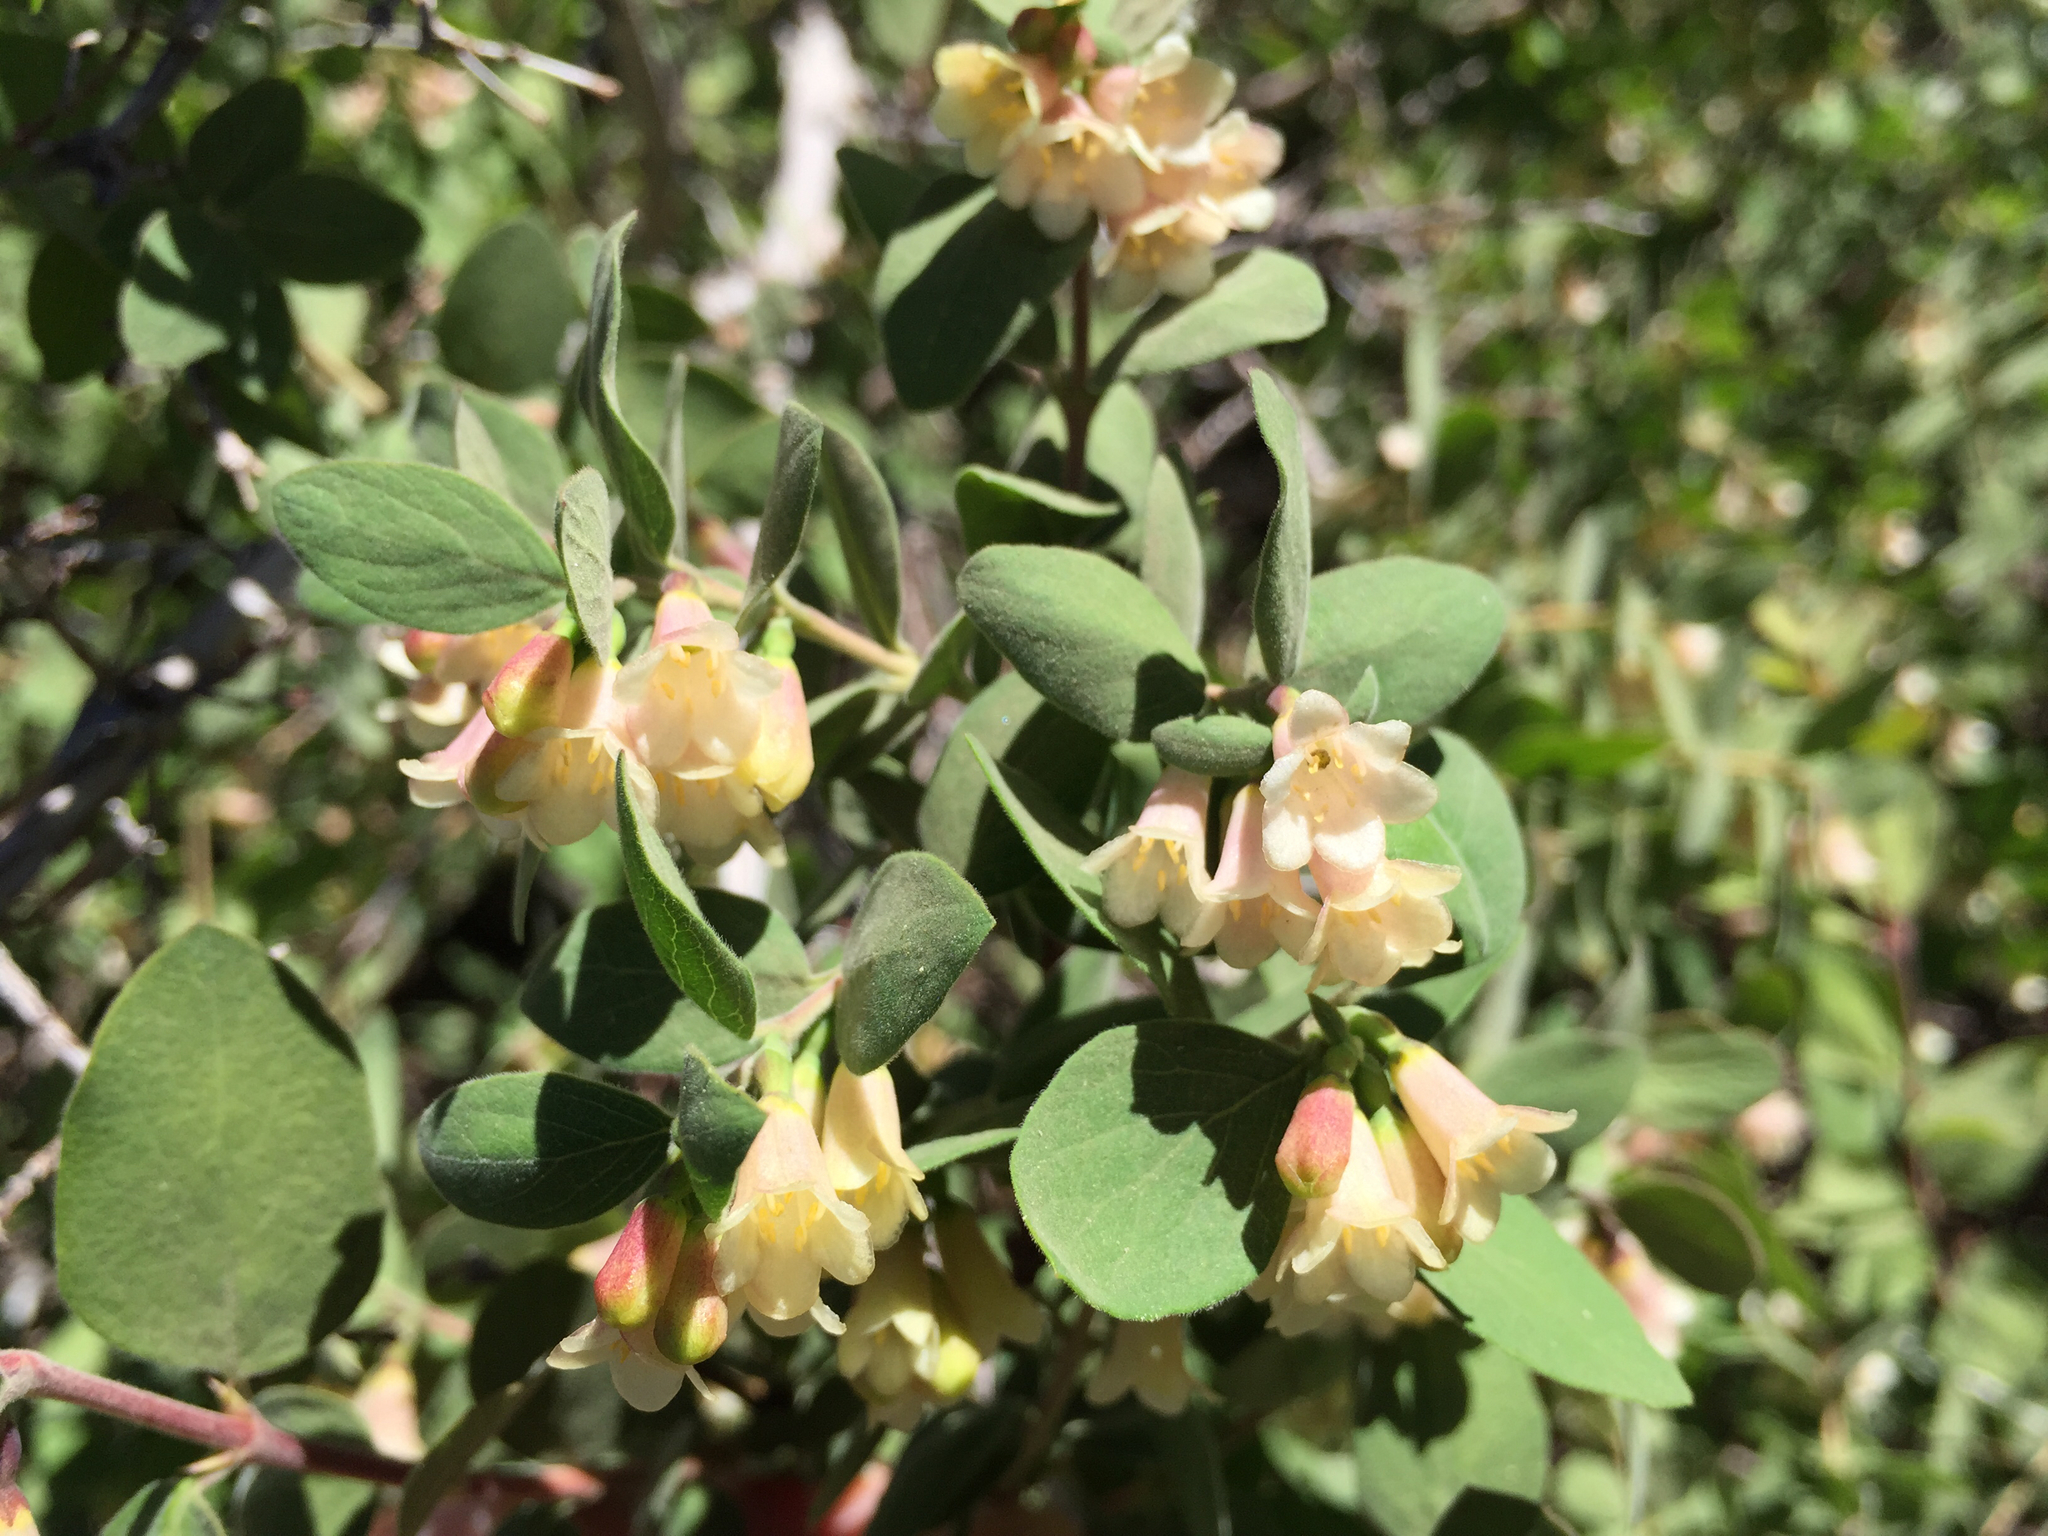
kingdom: Plantae
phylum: Tracheophyta
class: Magnoliopsida
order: Dipsacales
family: Caprifoliaceae
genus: Symphoricarpos
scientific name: Symphoricarpos rotundifolius
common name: Round-leaved snowberry
